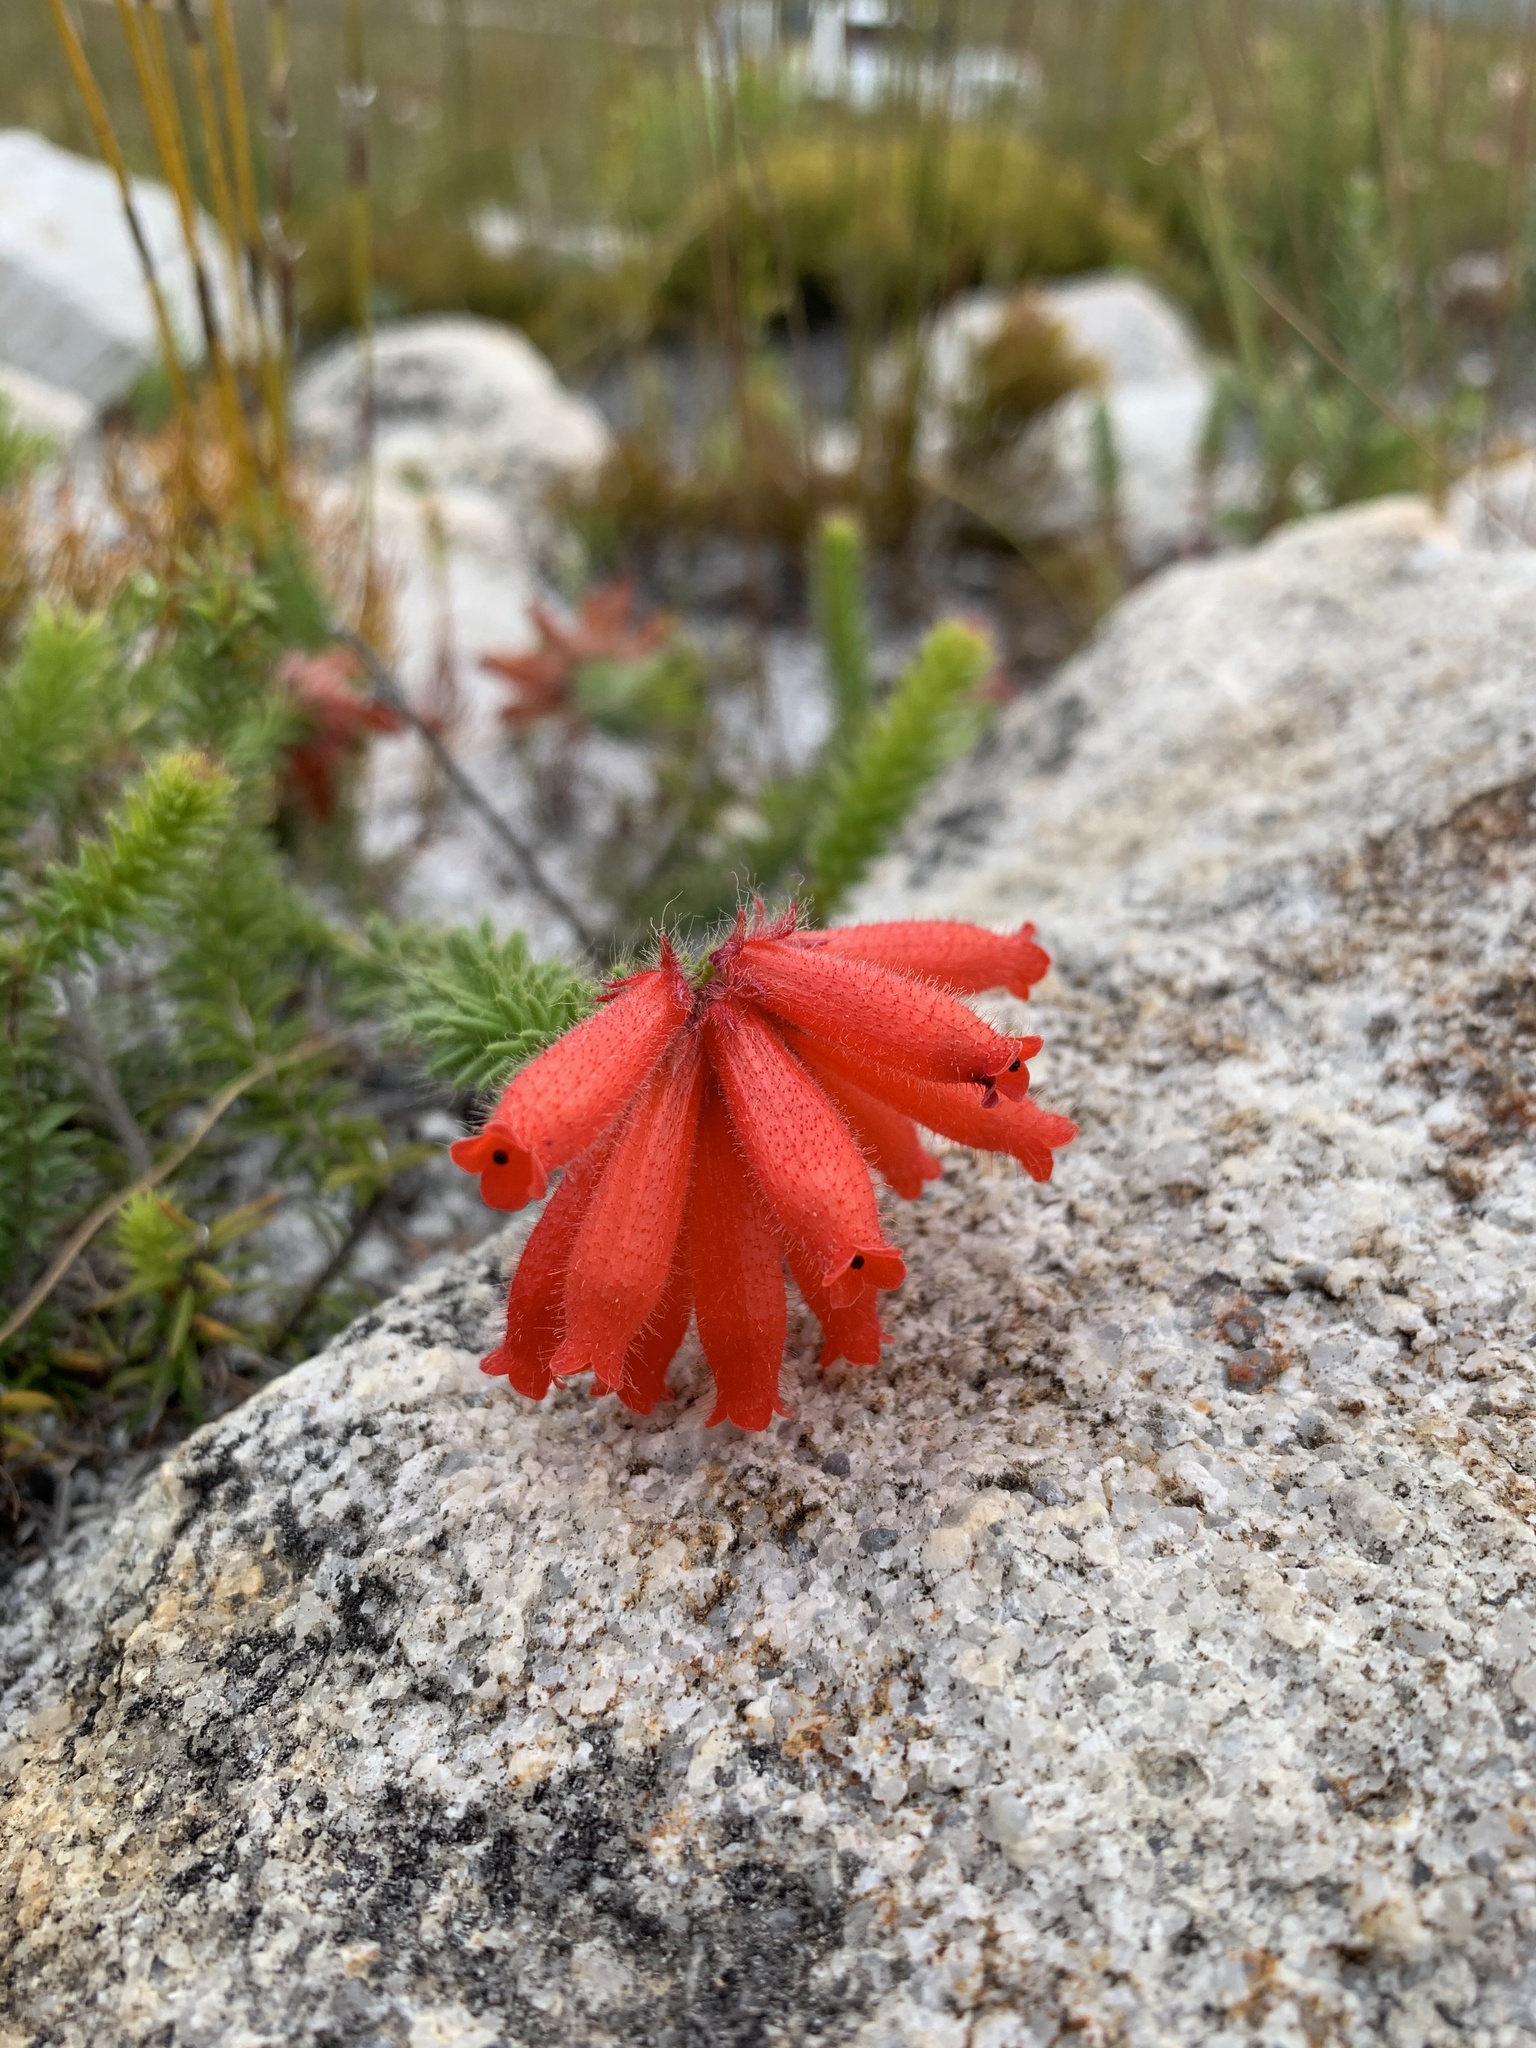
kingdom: Plantae
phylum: Tracheophyta
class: Magnoliopsida
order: Ericales
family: Ericaceae
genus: Erica
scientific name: Erica cerinthoides
